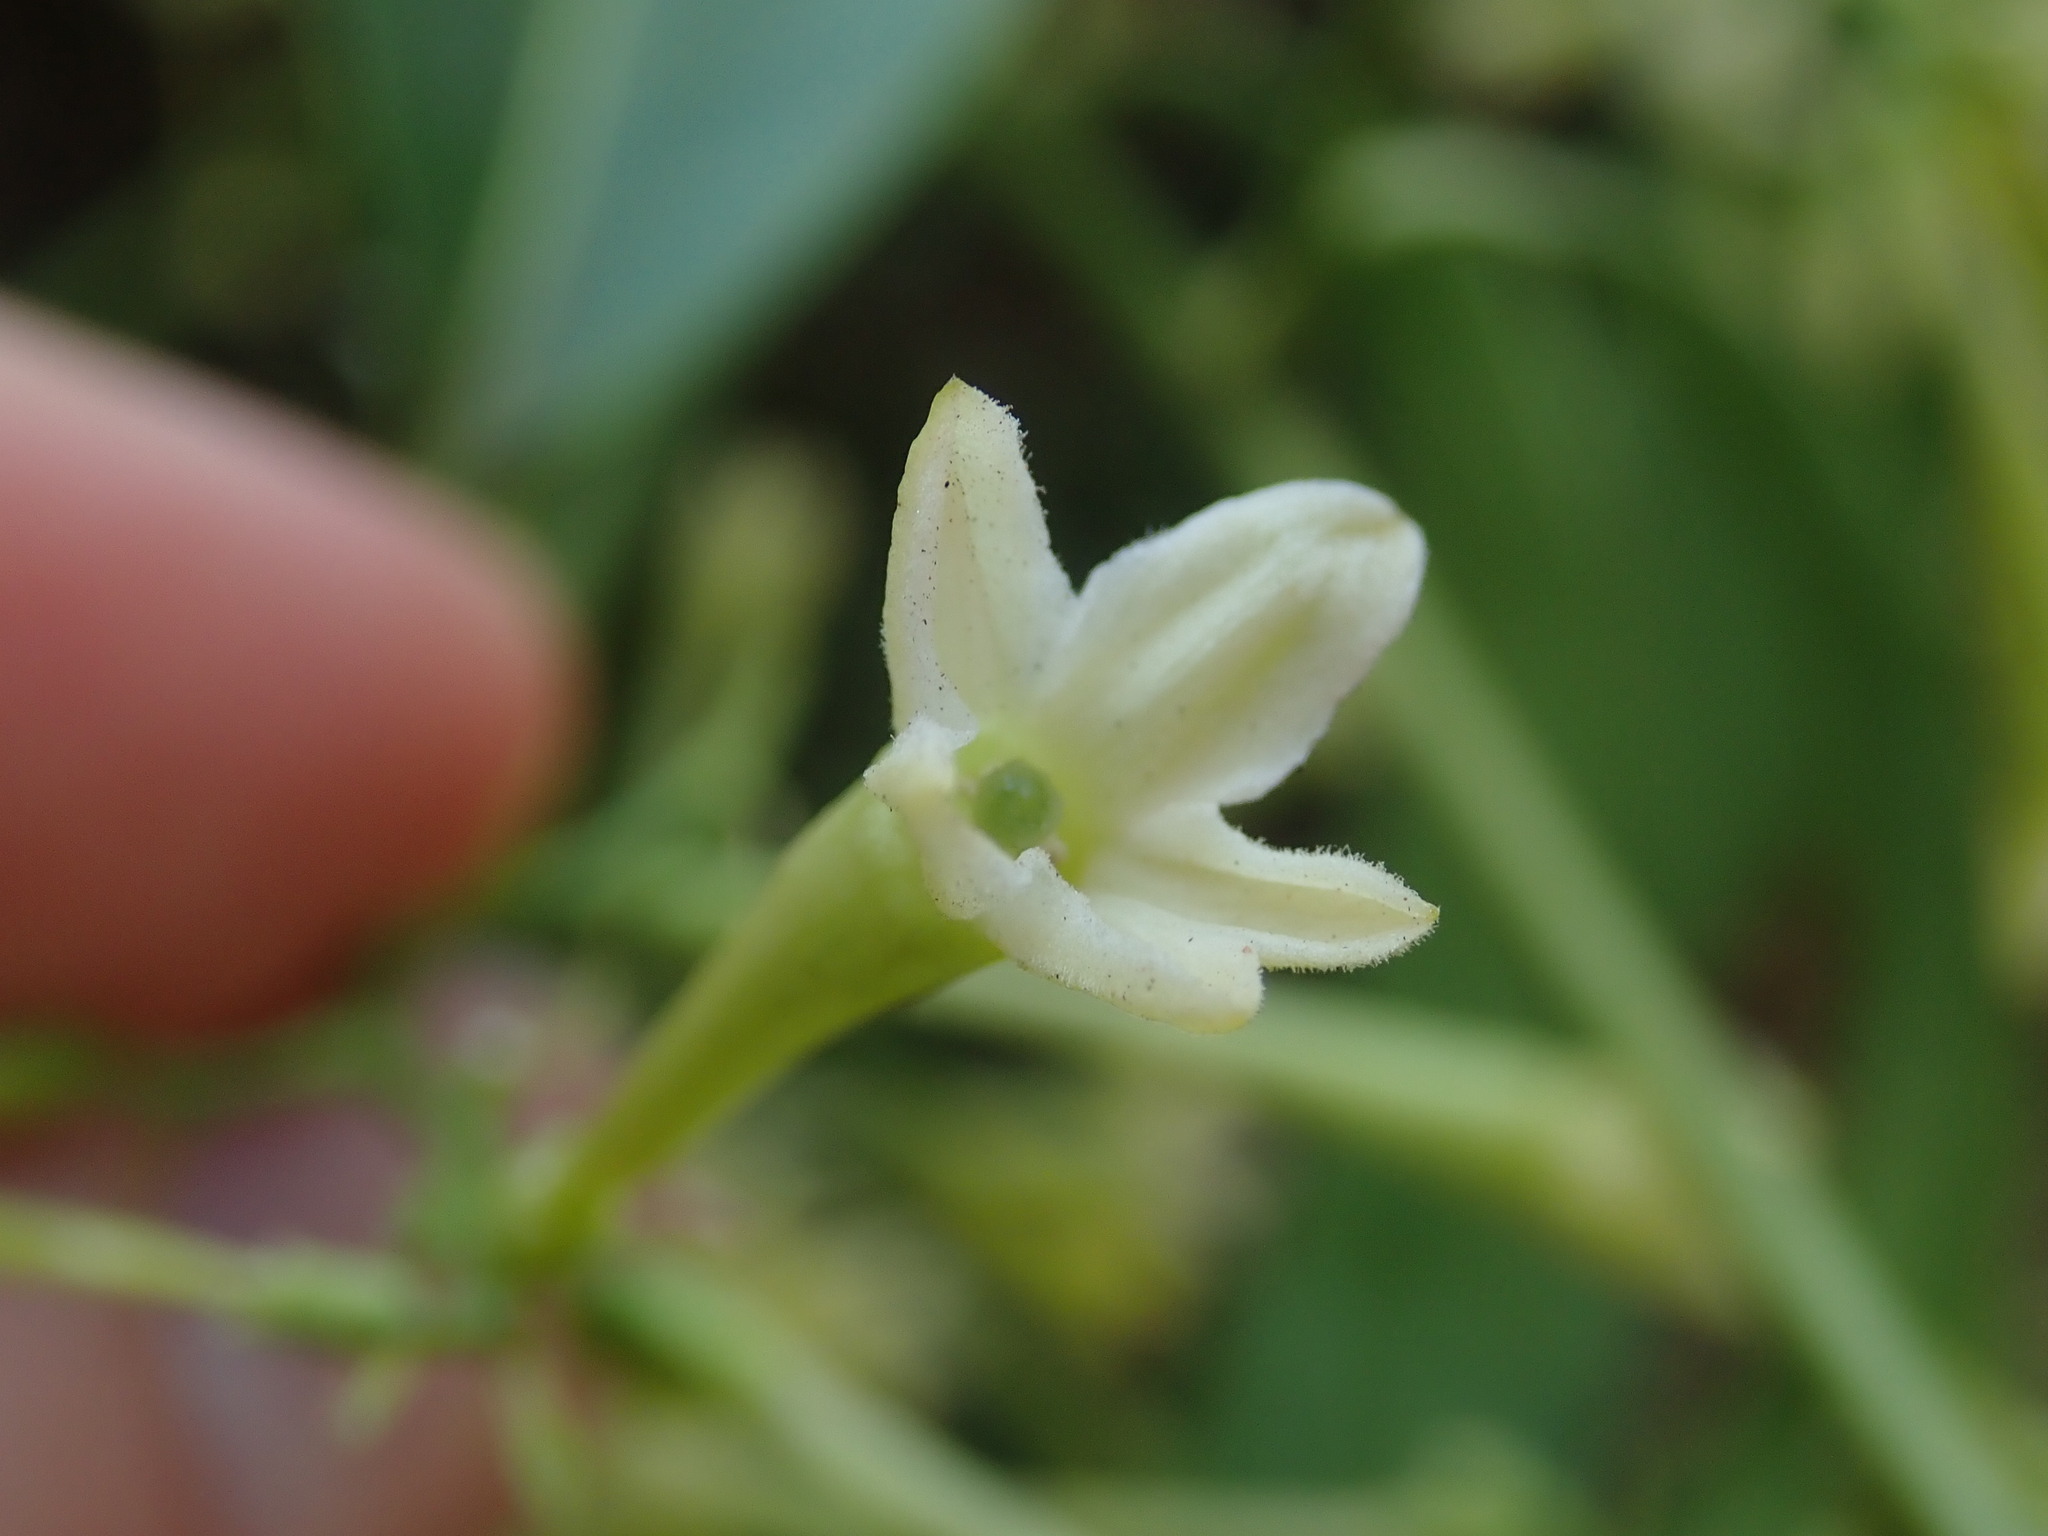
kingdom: Plantae
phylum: Tracheophyta
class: Magnoliopsida
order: Solanales
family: Solanaceae
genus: Cestrum
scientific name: Cestrum nocturnum
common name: Night jessamine
